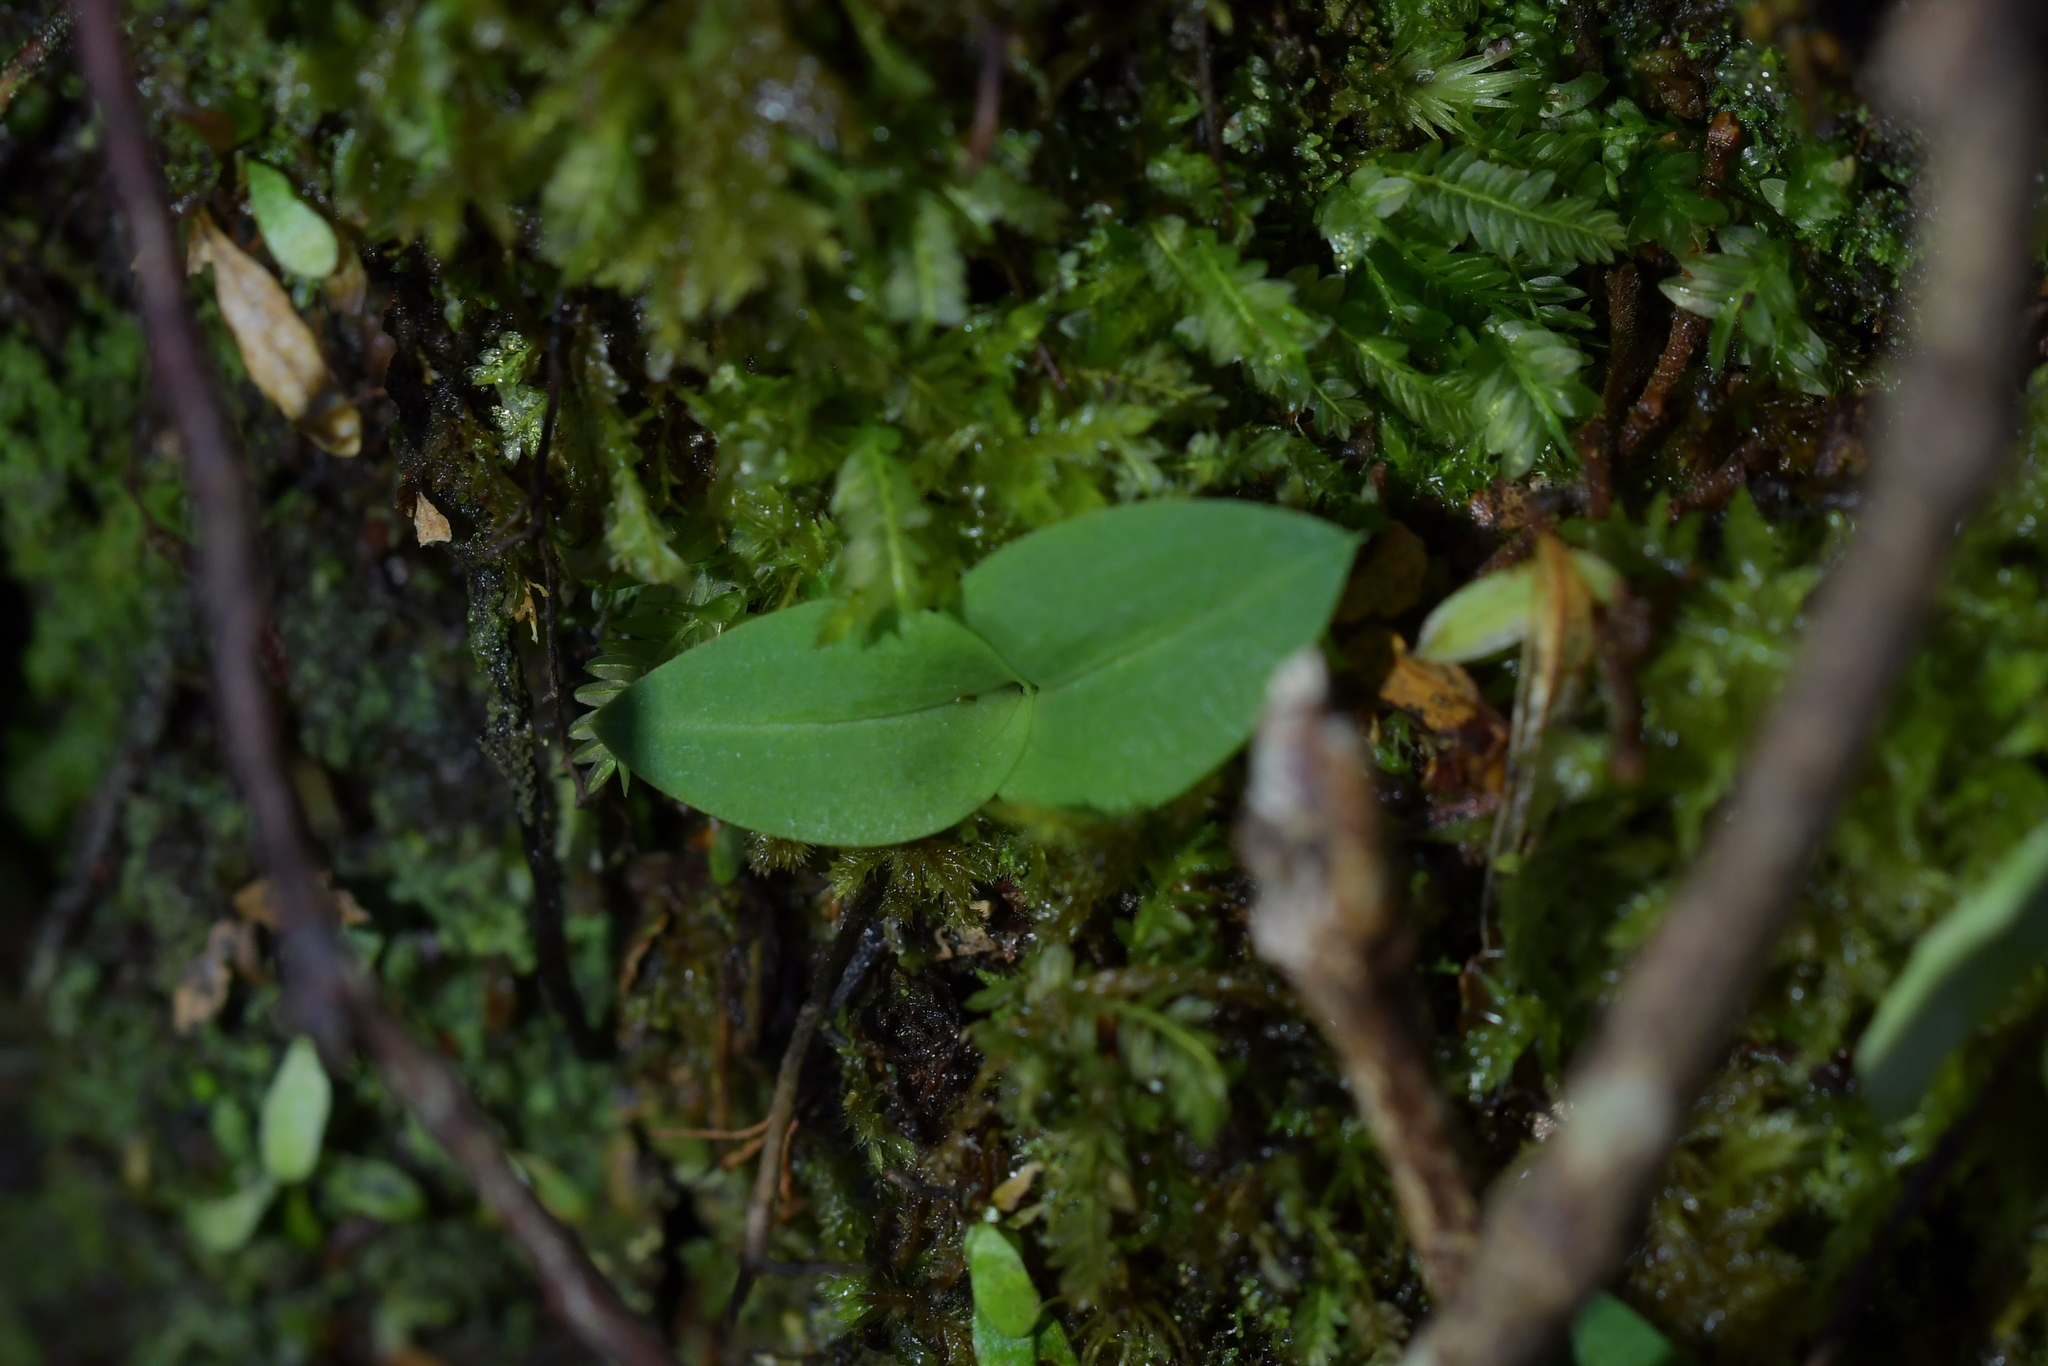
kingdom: Plantae
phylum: Tracheophyta
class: Liliopsida
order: Asparagales
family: Orchidaceae
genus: Chiloglottis
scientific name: Chiloglottis cornuta
